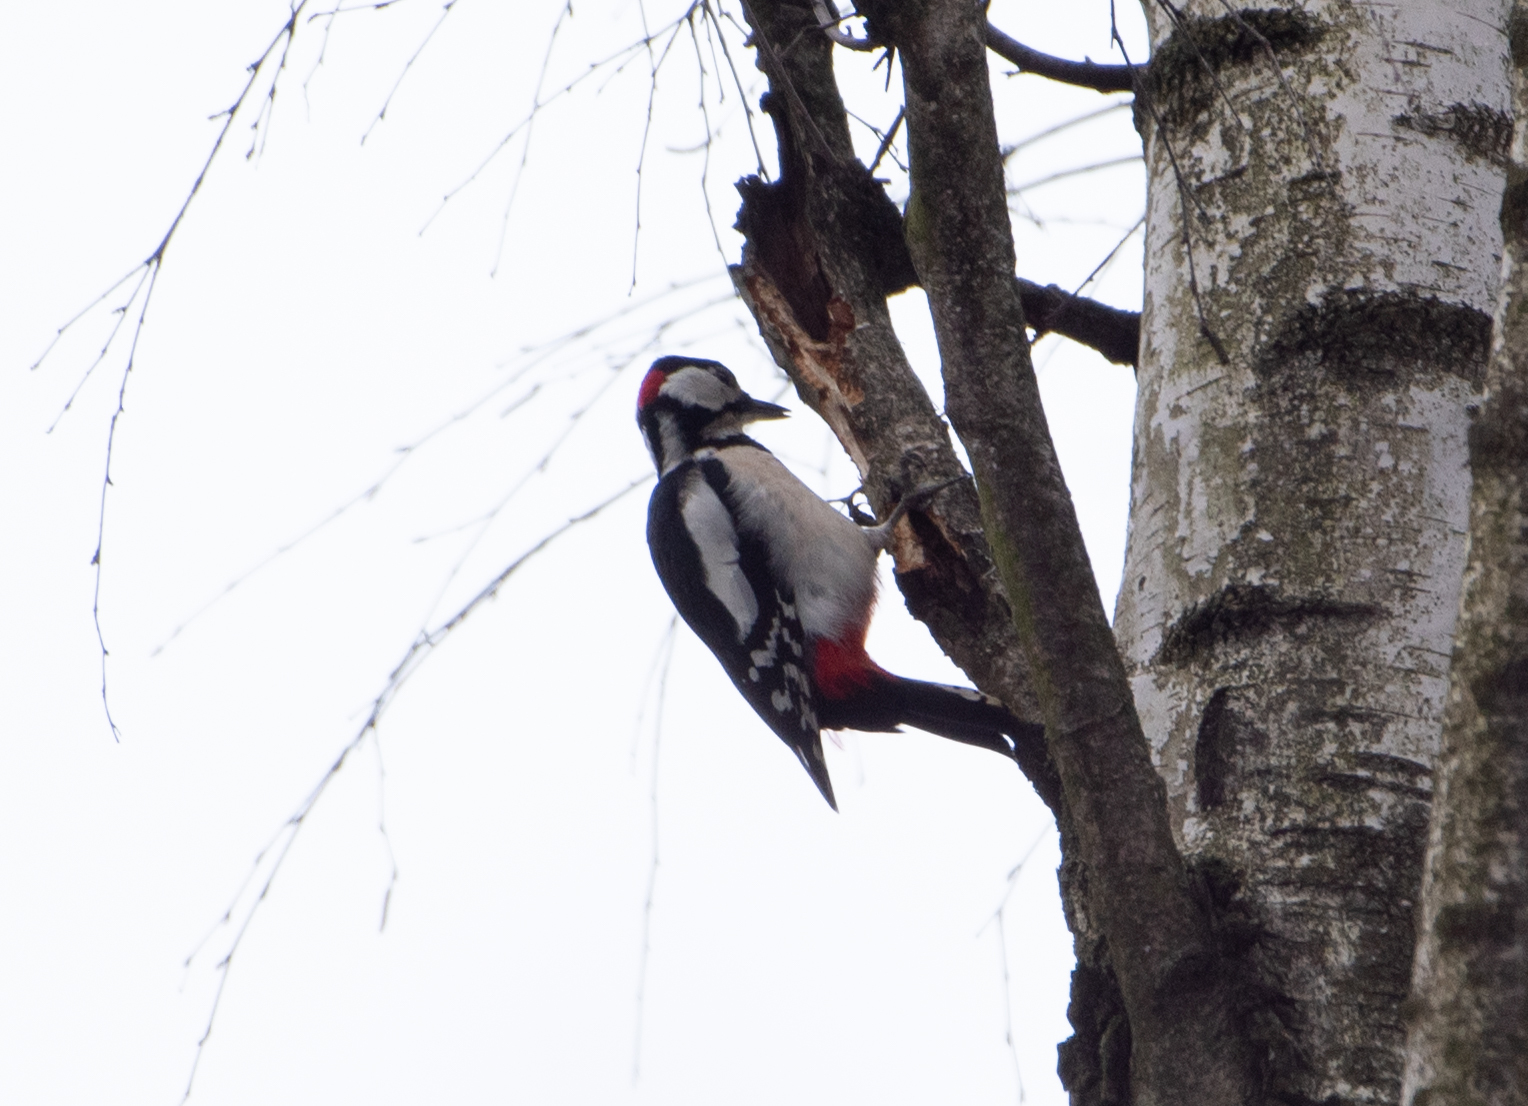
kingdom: Animalia
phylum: Chordata
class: Aves
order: Piciformes
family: Picidae
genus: Dendrocopos
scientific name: Dendrocopos major
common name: Great spotted woodpecker
